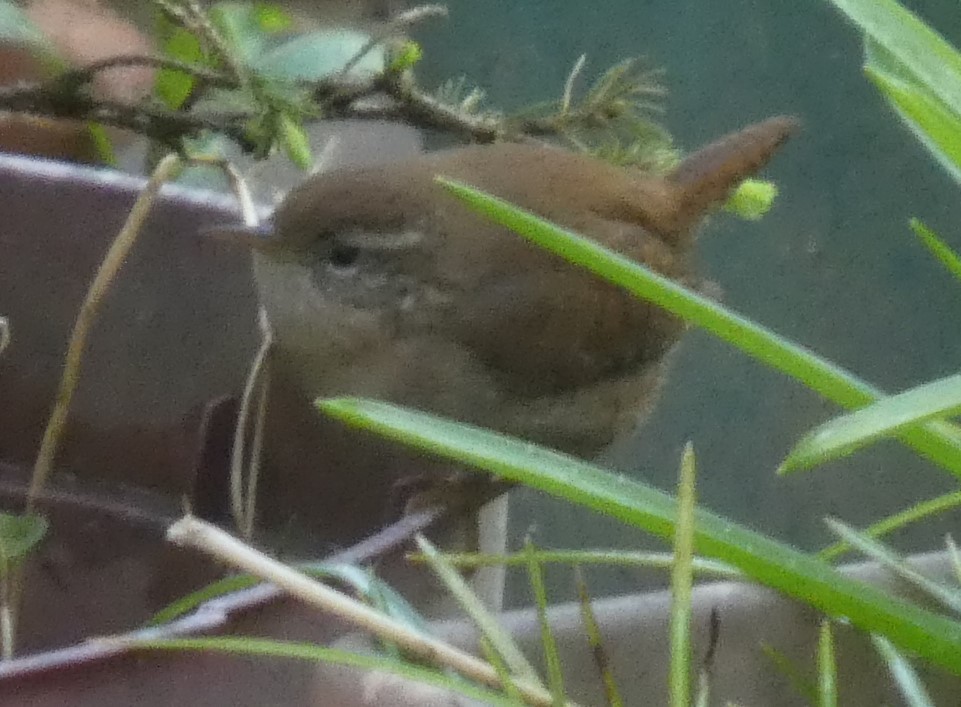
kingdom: Animalia
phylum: Chordata
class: Aves
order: Passeriformes
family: Troglodytidae
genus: Troglodytes
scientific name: Troglodytes troglodytes
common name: Eurasian wren
